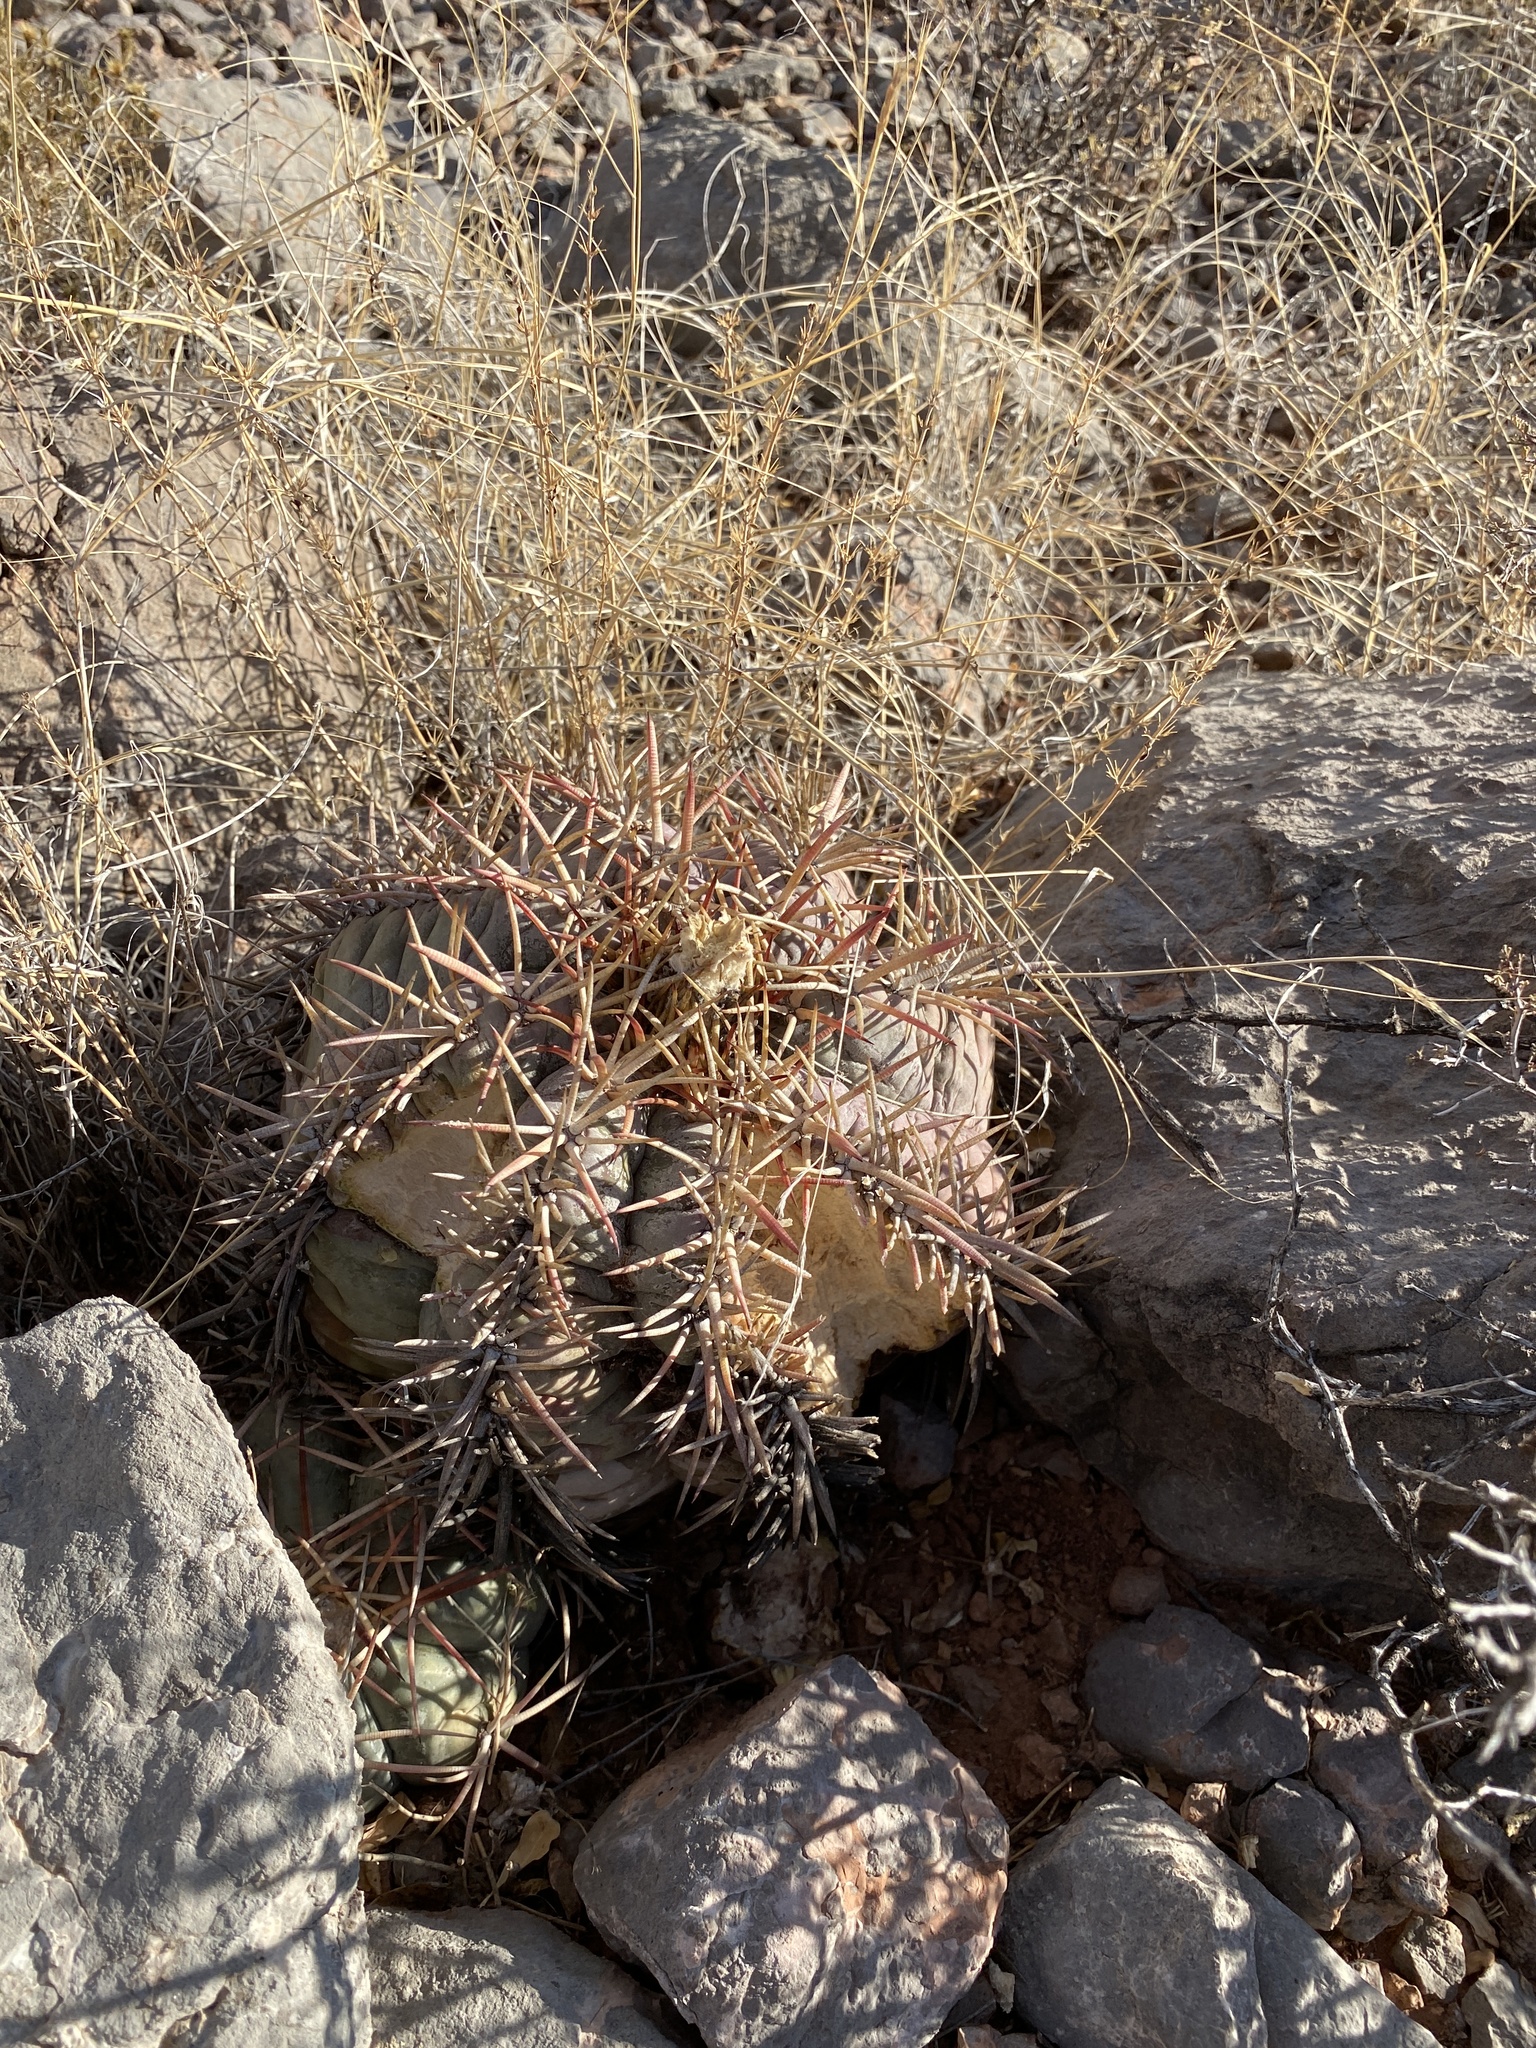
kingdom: Plantae
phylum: Tracheophyta
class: Magnoliopsida
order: Caryophyllales
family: Cactaceae
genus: Echinocactus
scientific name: Echinocactus horizonthalonius
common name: Devilshead
